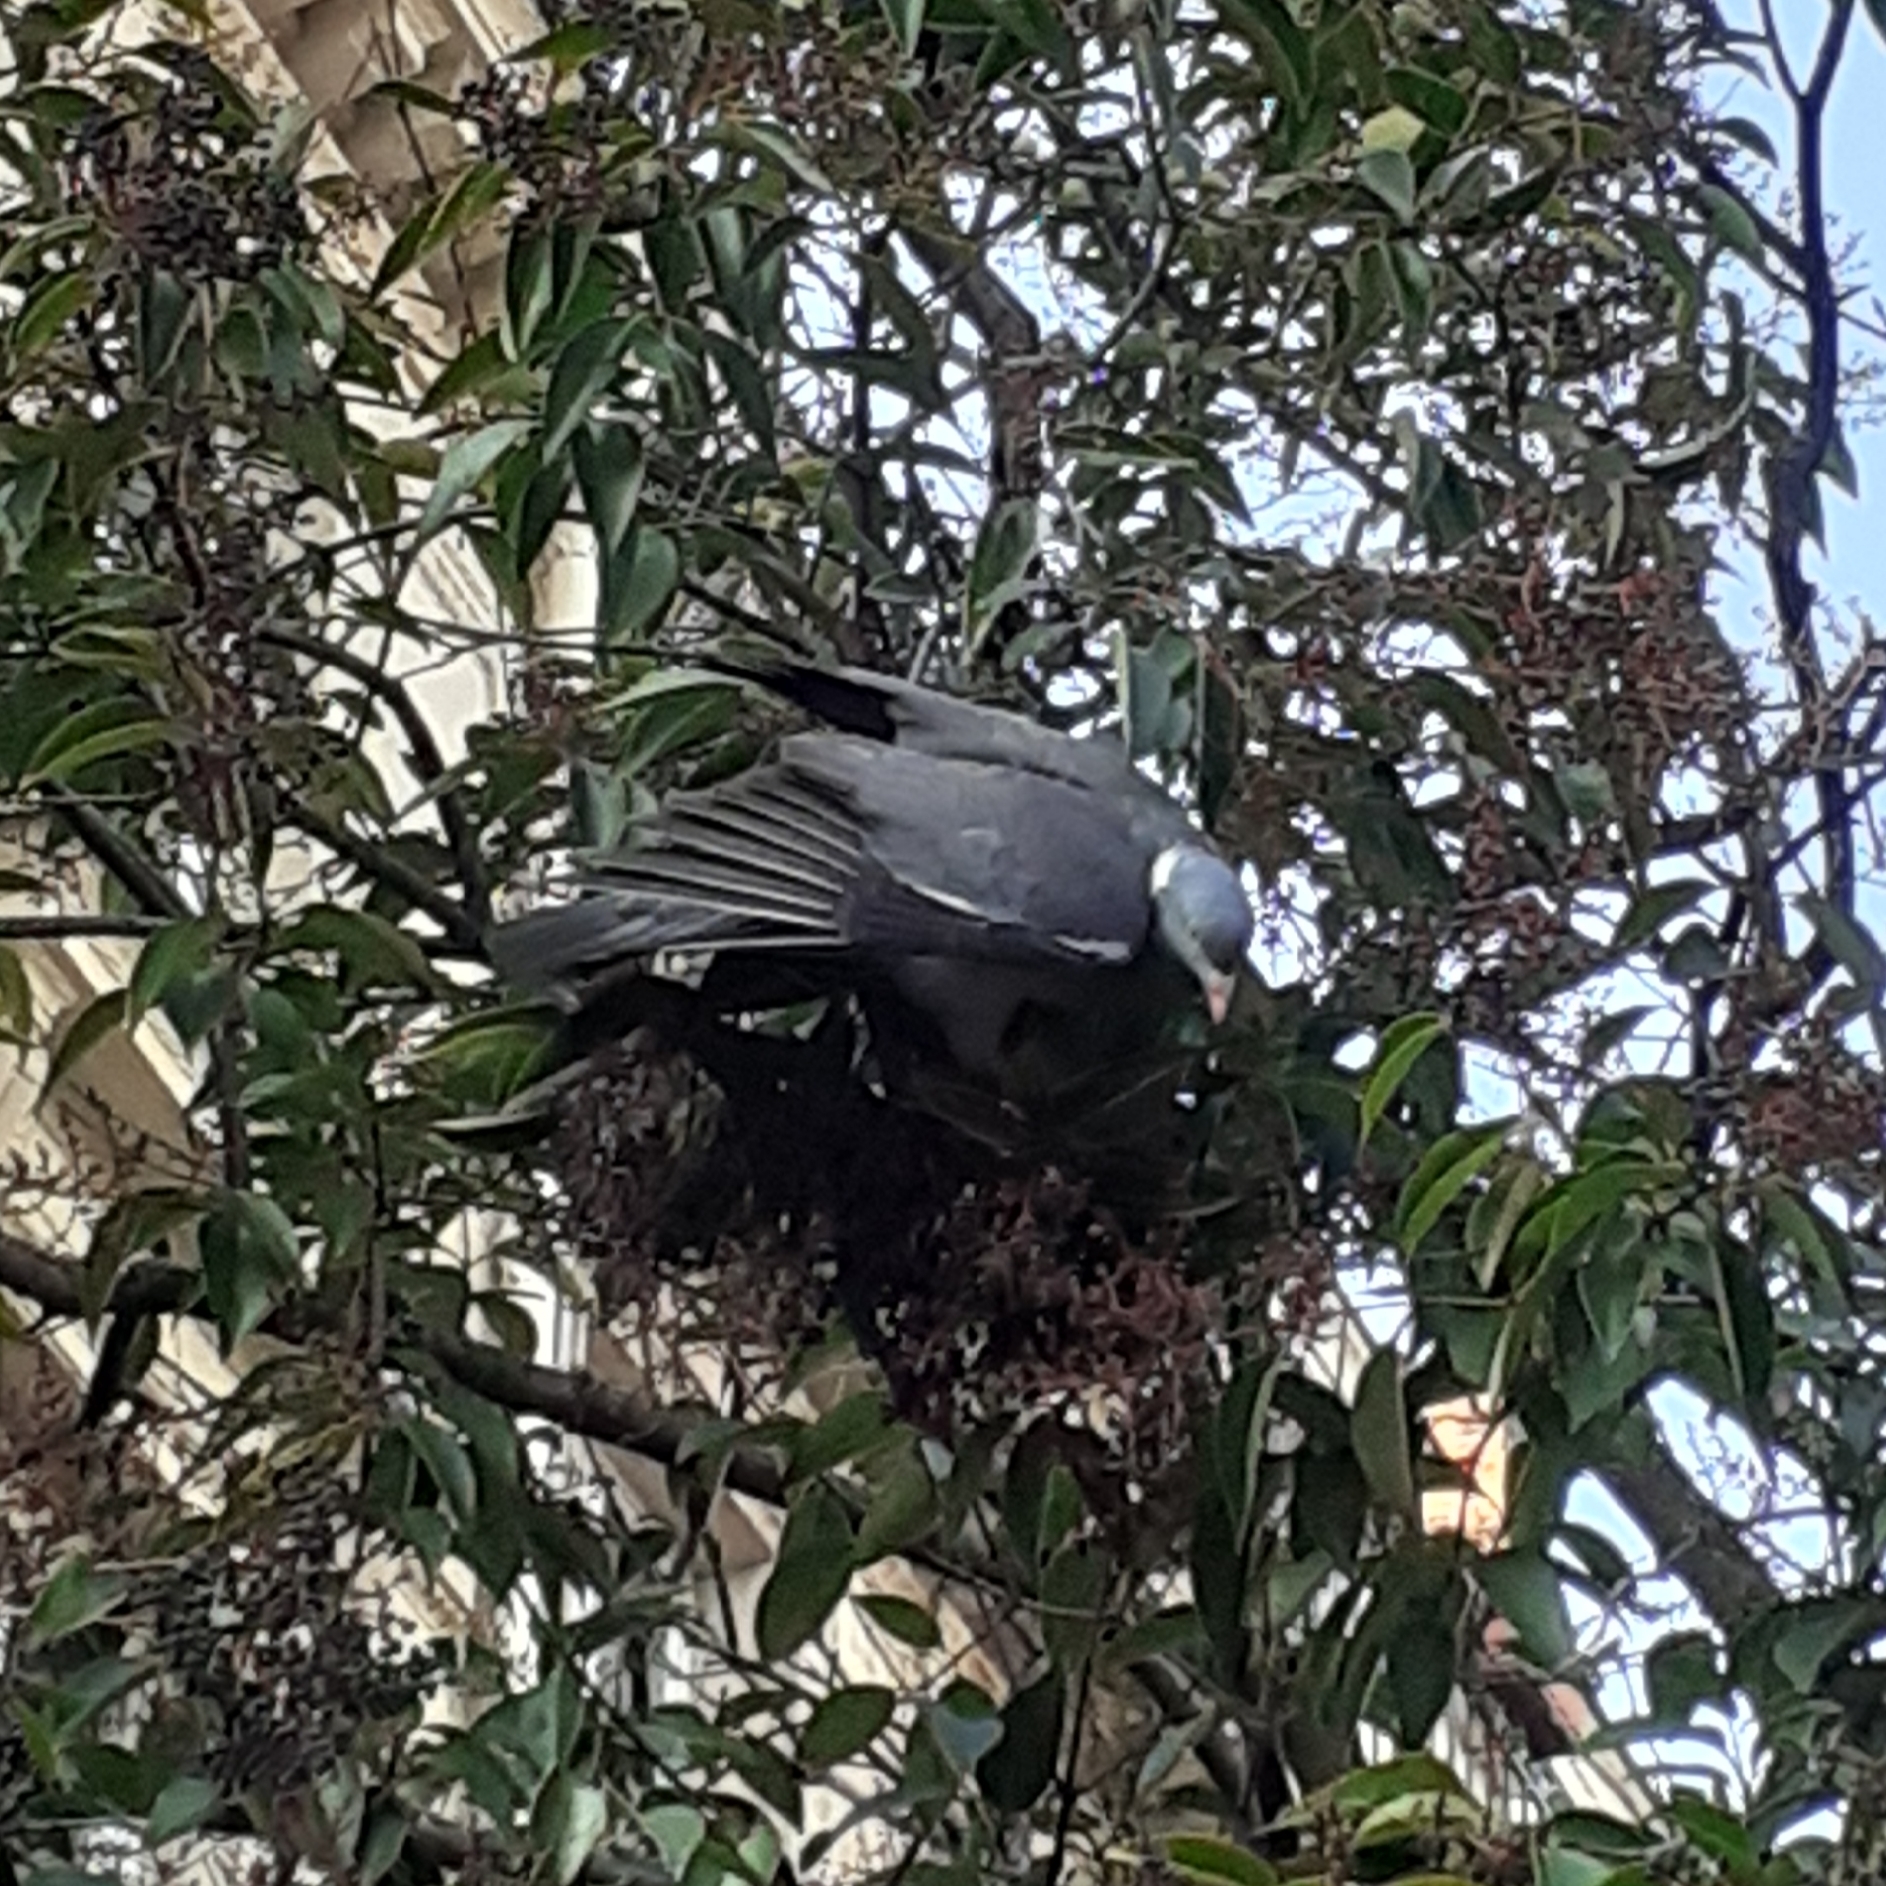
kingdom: Animalia
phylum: Chordata
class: Aves
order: Columbiformes
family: Columbidae
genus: Columba
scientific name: Columba palumbus
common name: Common wood pigeon
